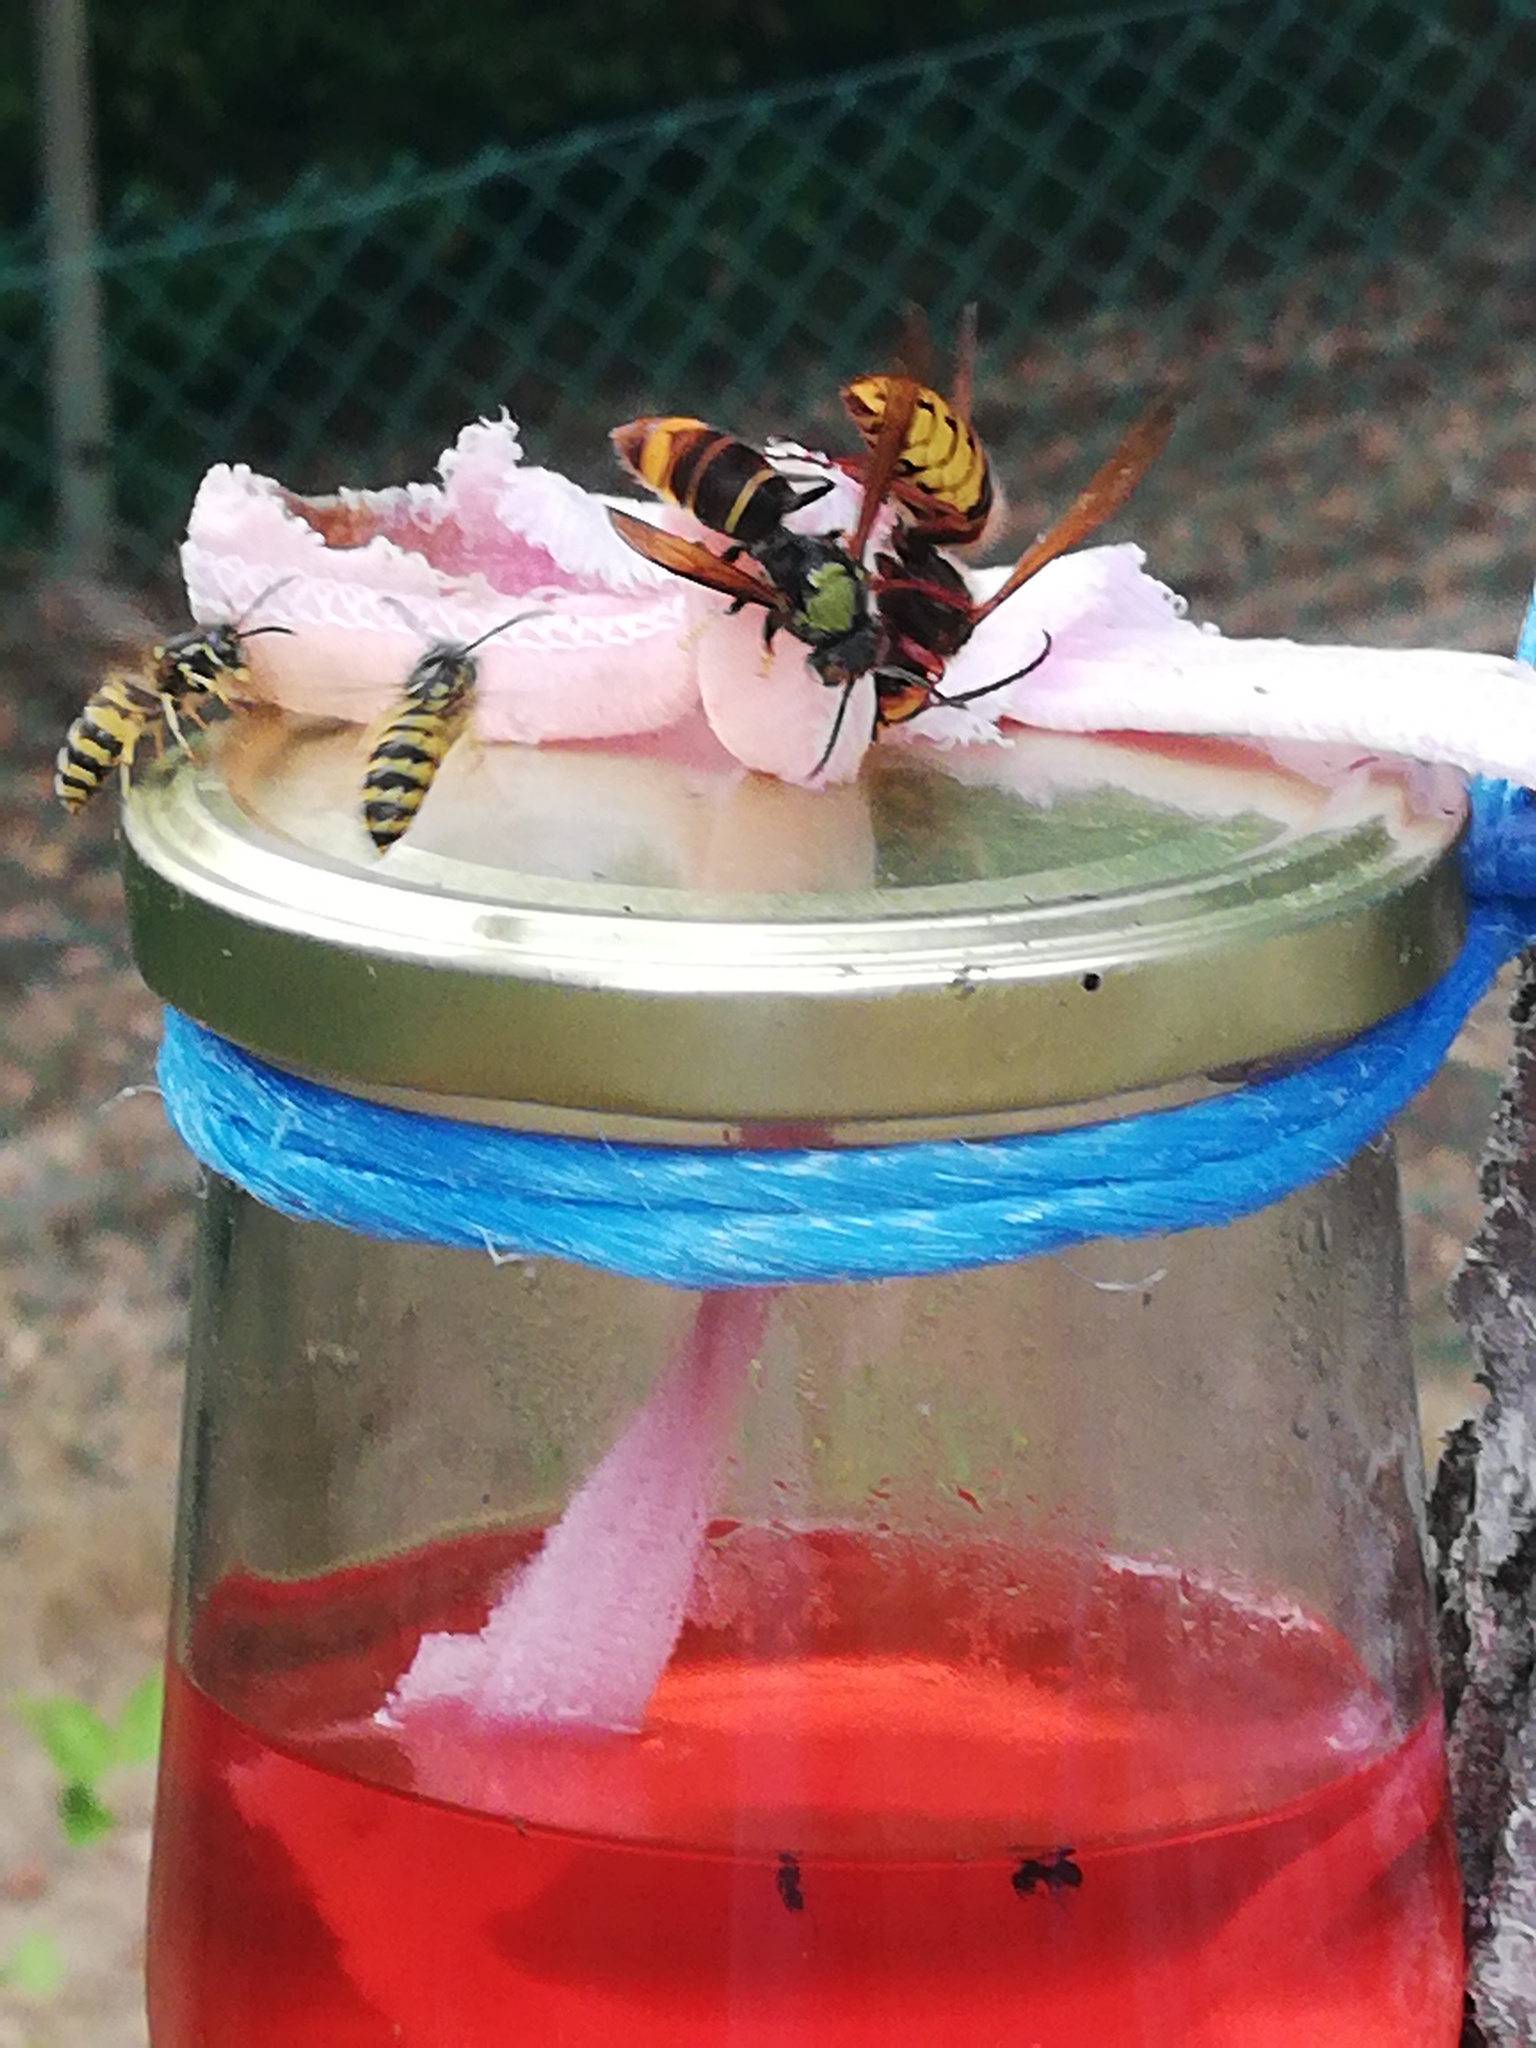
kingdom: Animalia
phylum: Arthropoda
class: Insecta
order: Hymenoptera
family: Vespidae
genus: Vespa
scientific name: Vespa velutina
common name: Asian hornet
